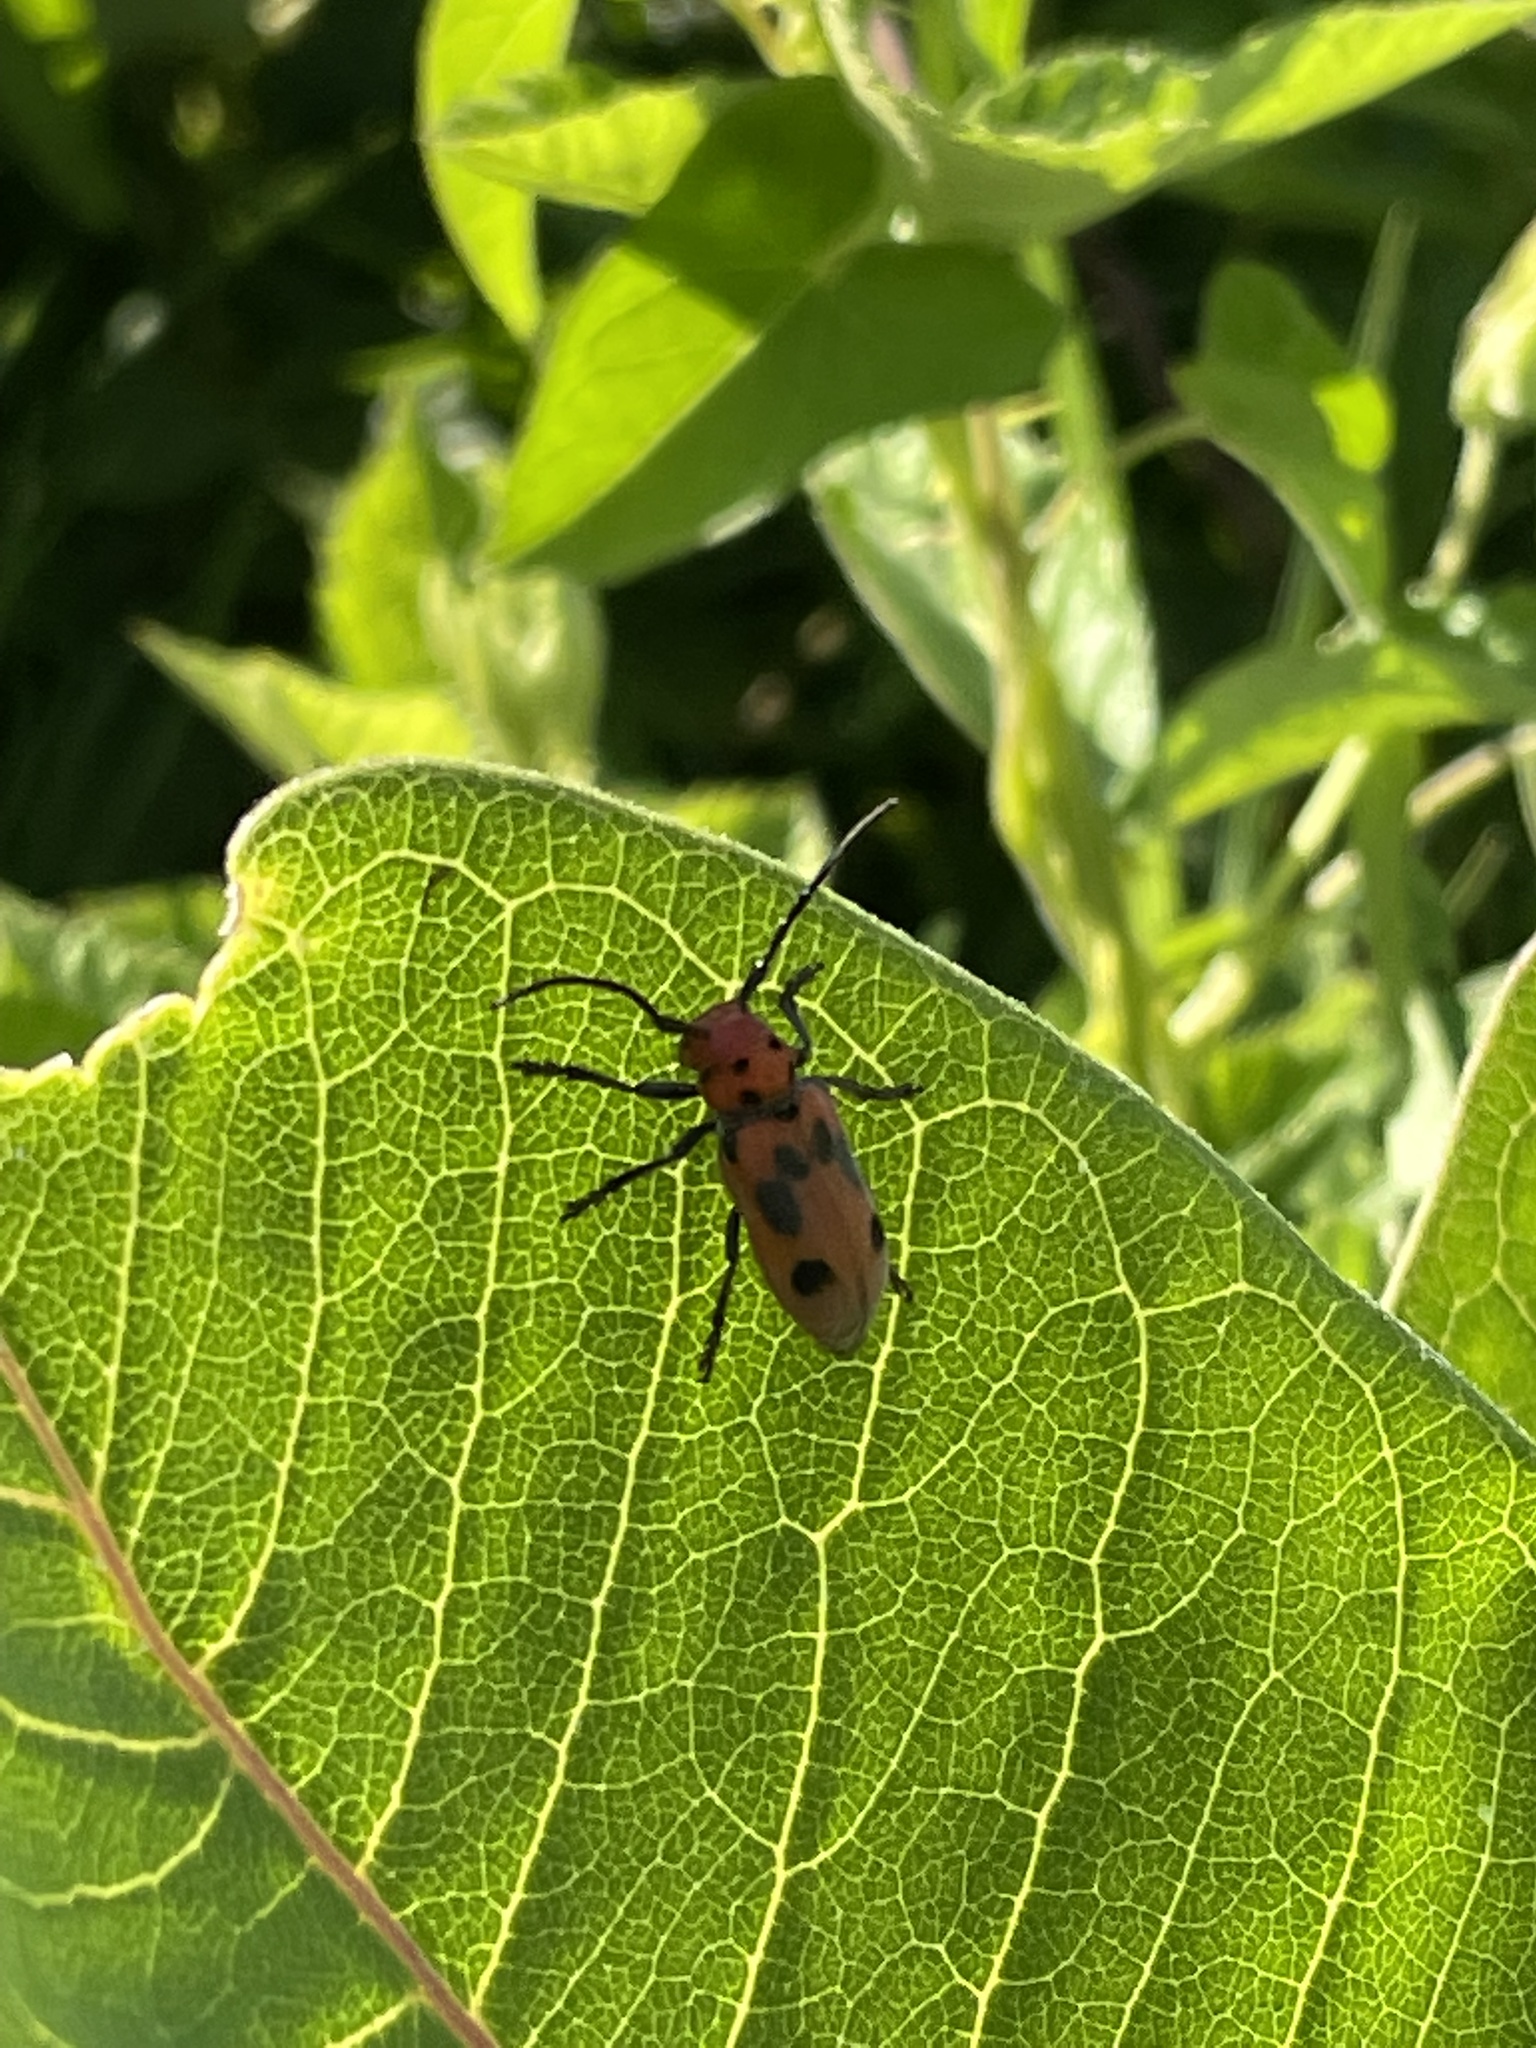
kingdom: Animalia
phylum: Arthropoda
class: Insecta
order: Coleoptera
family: Cerambycidae
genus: Tetraopes
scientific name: Tetraopes tetrophthalmus
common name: Red milkweed beetle
